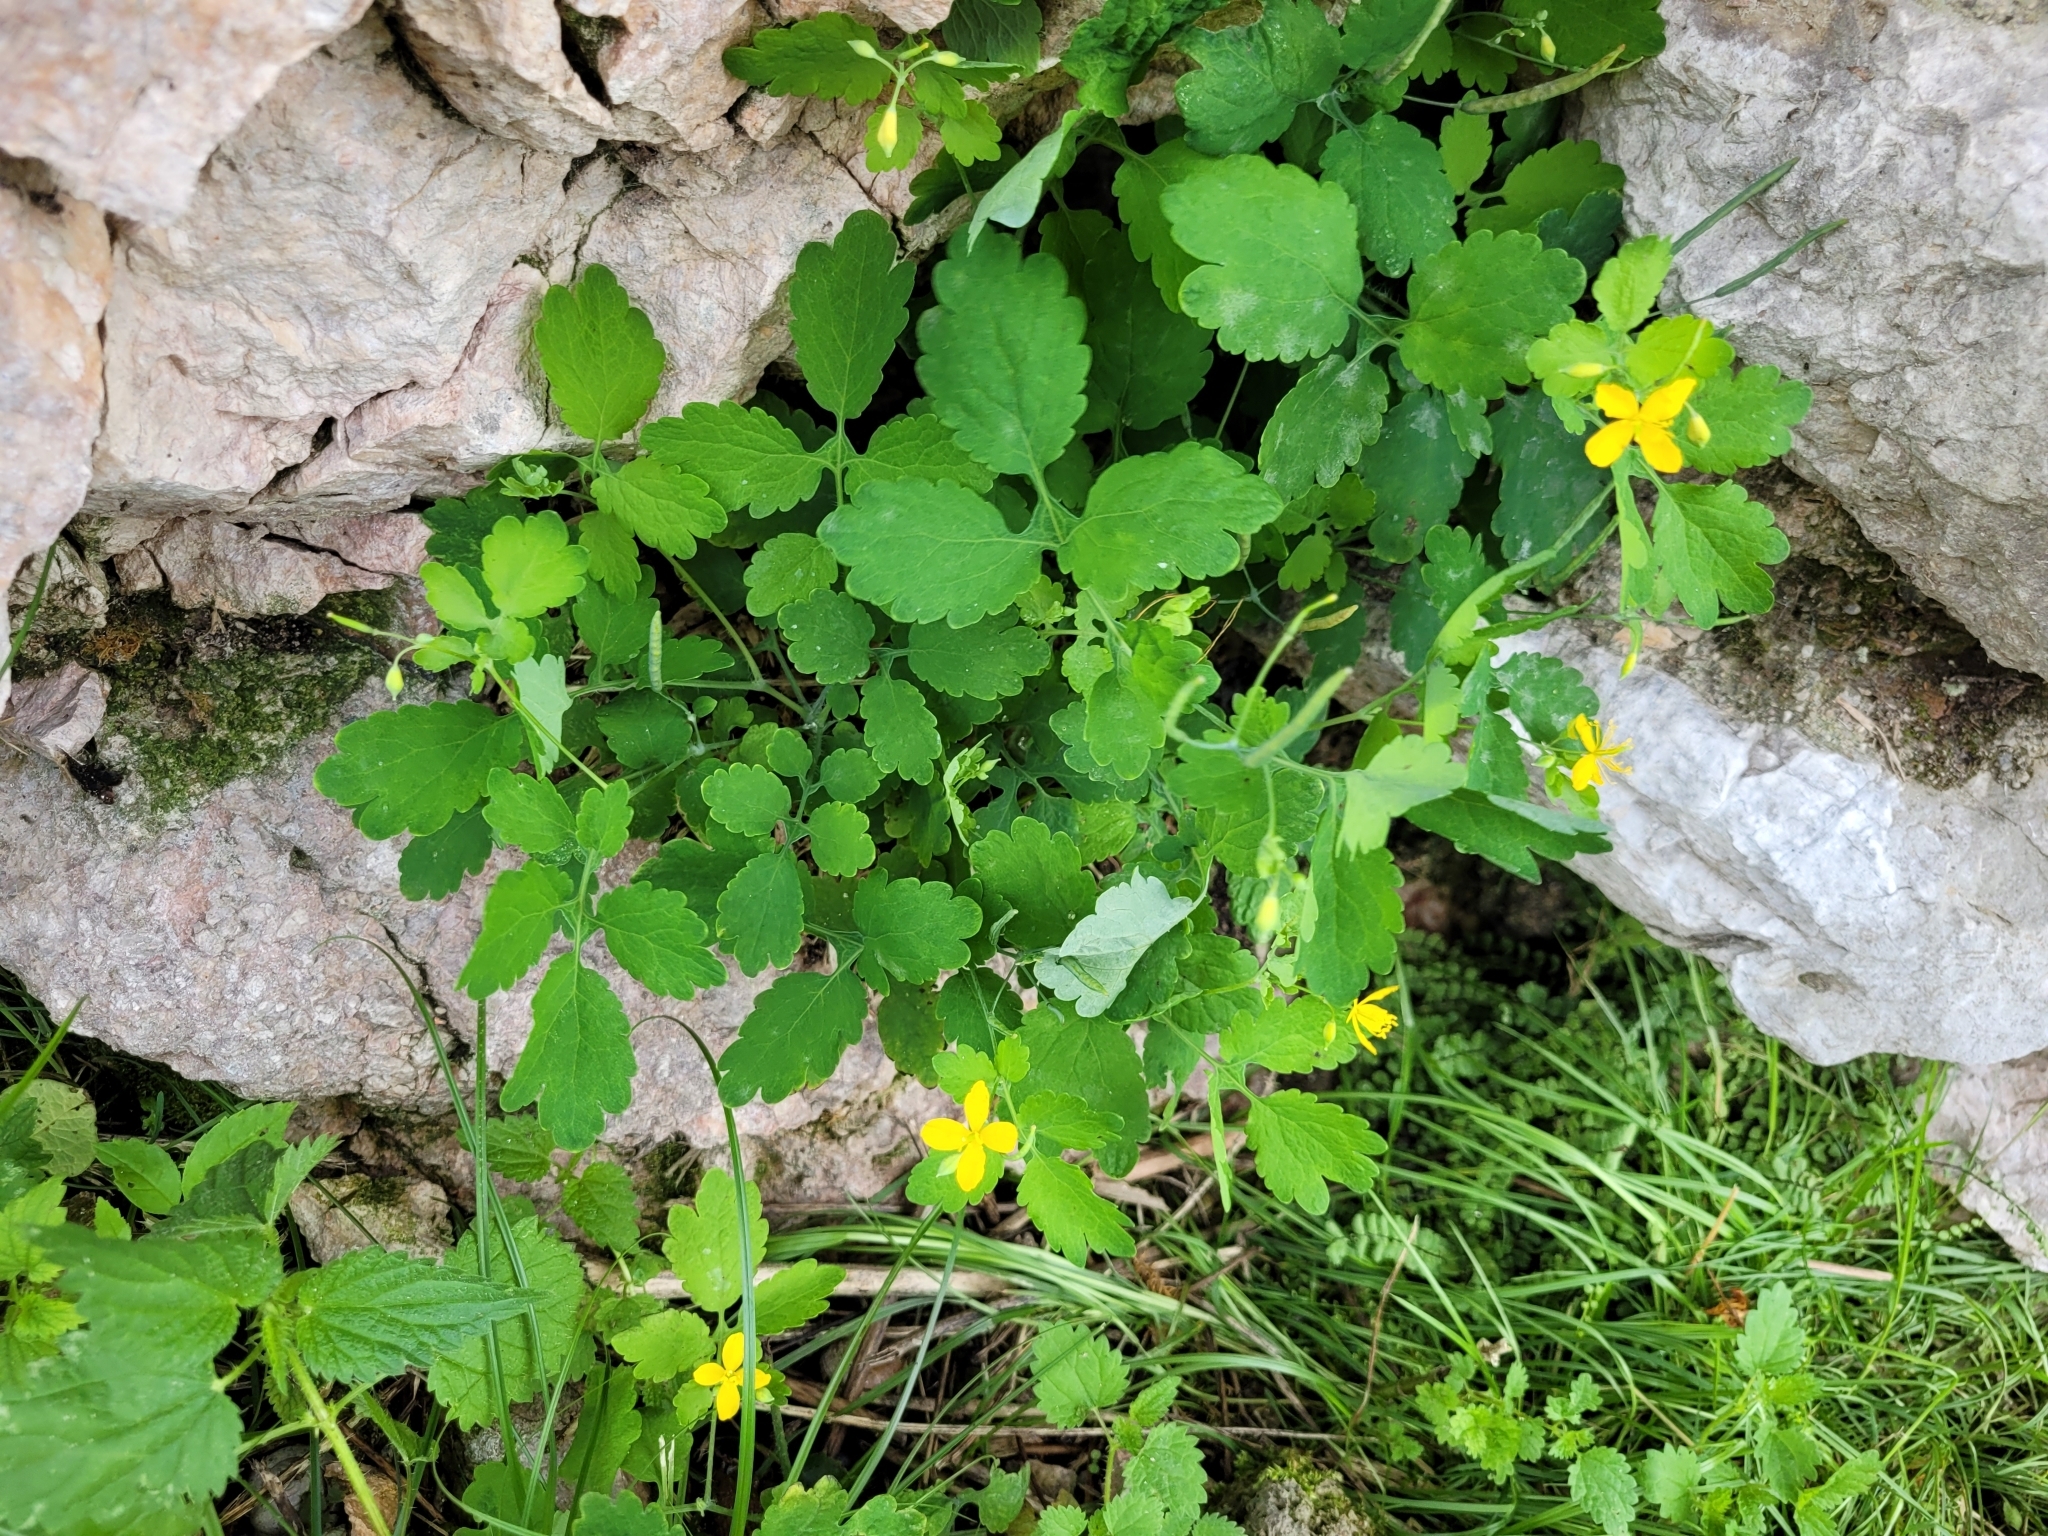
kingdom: Plantae
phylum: Tracheophyta
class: Magnoliopsida
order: Ranunculales
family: Papaveraceae
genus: Chelidonium
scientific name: Chelidonium majus
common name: Greater celandine
